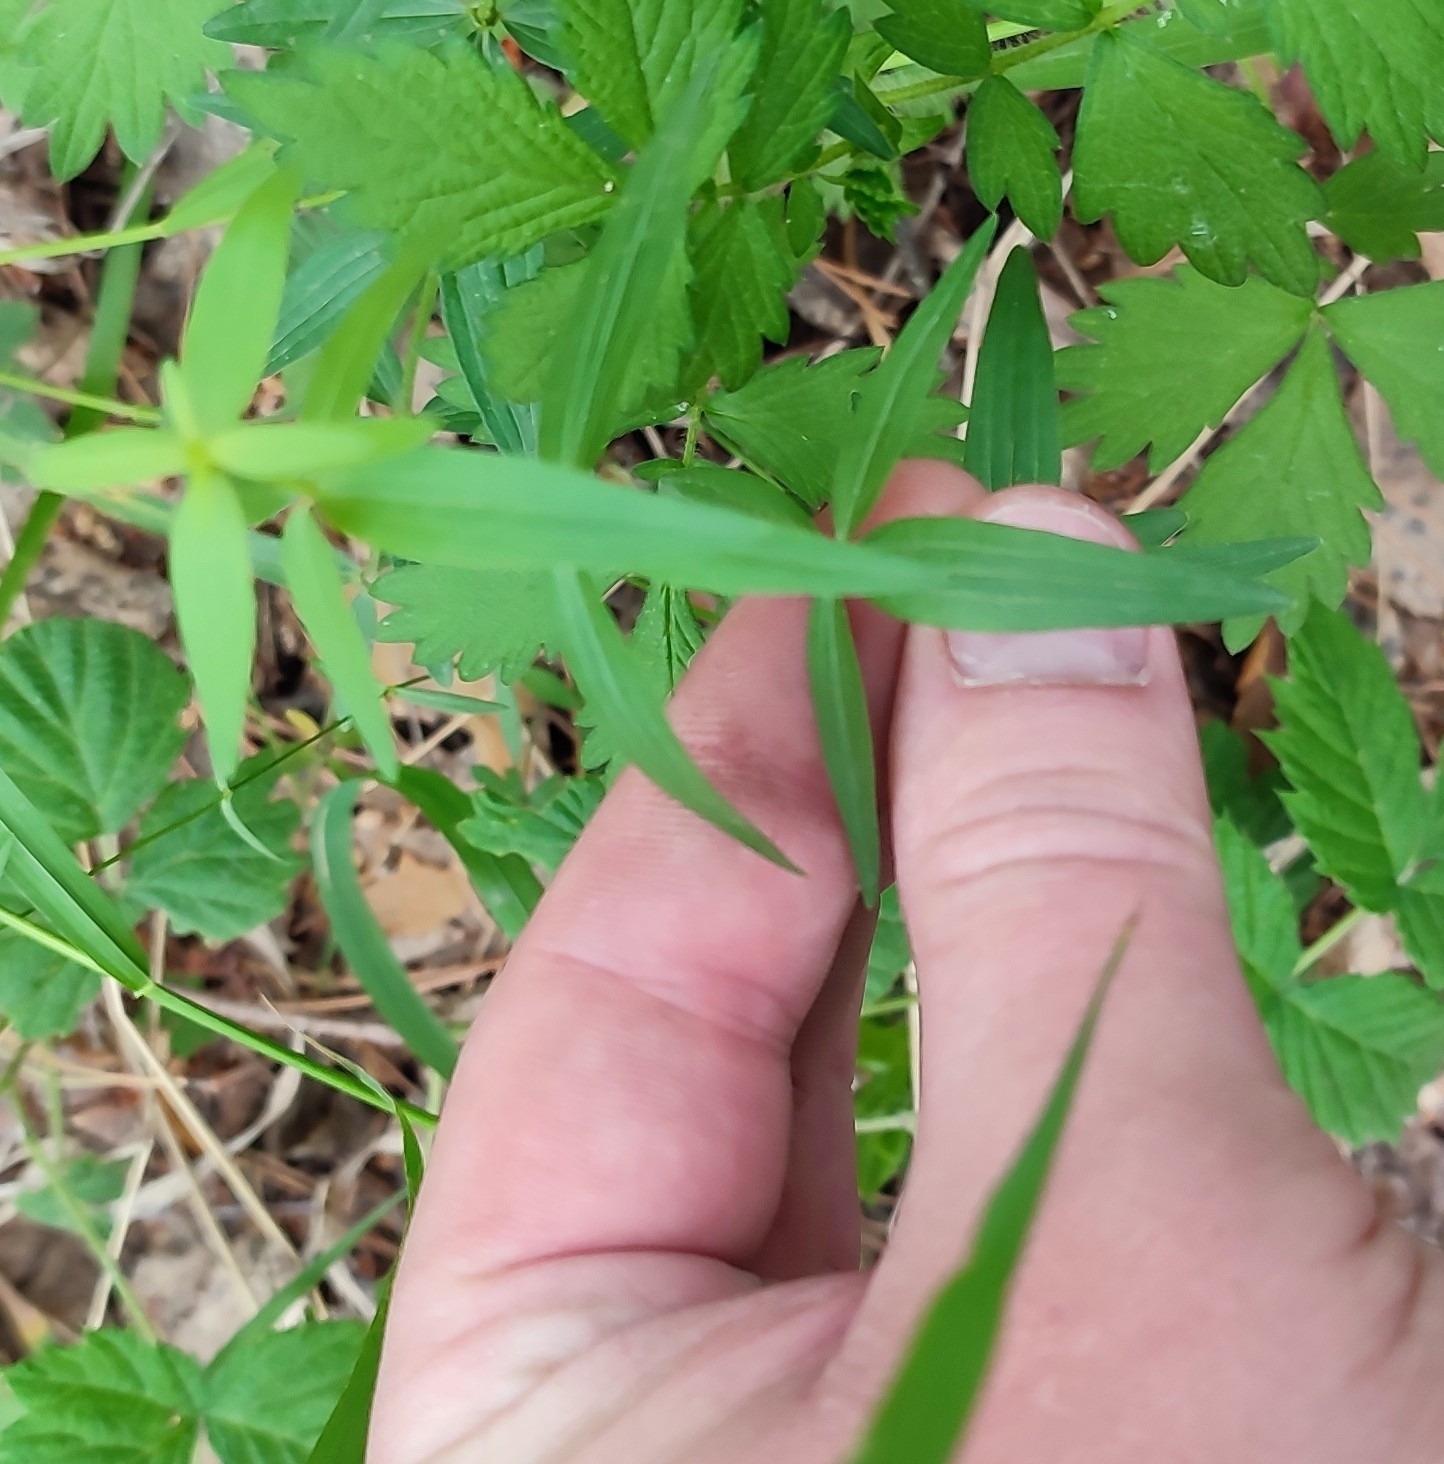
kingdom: Plantae
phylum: Tracheophyta
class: Magnoliopsida
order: Gentianales
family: Rubiaceae
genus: Galium
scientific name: Galium boreale
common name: Northern bedstraw
